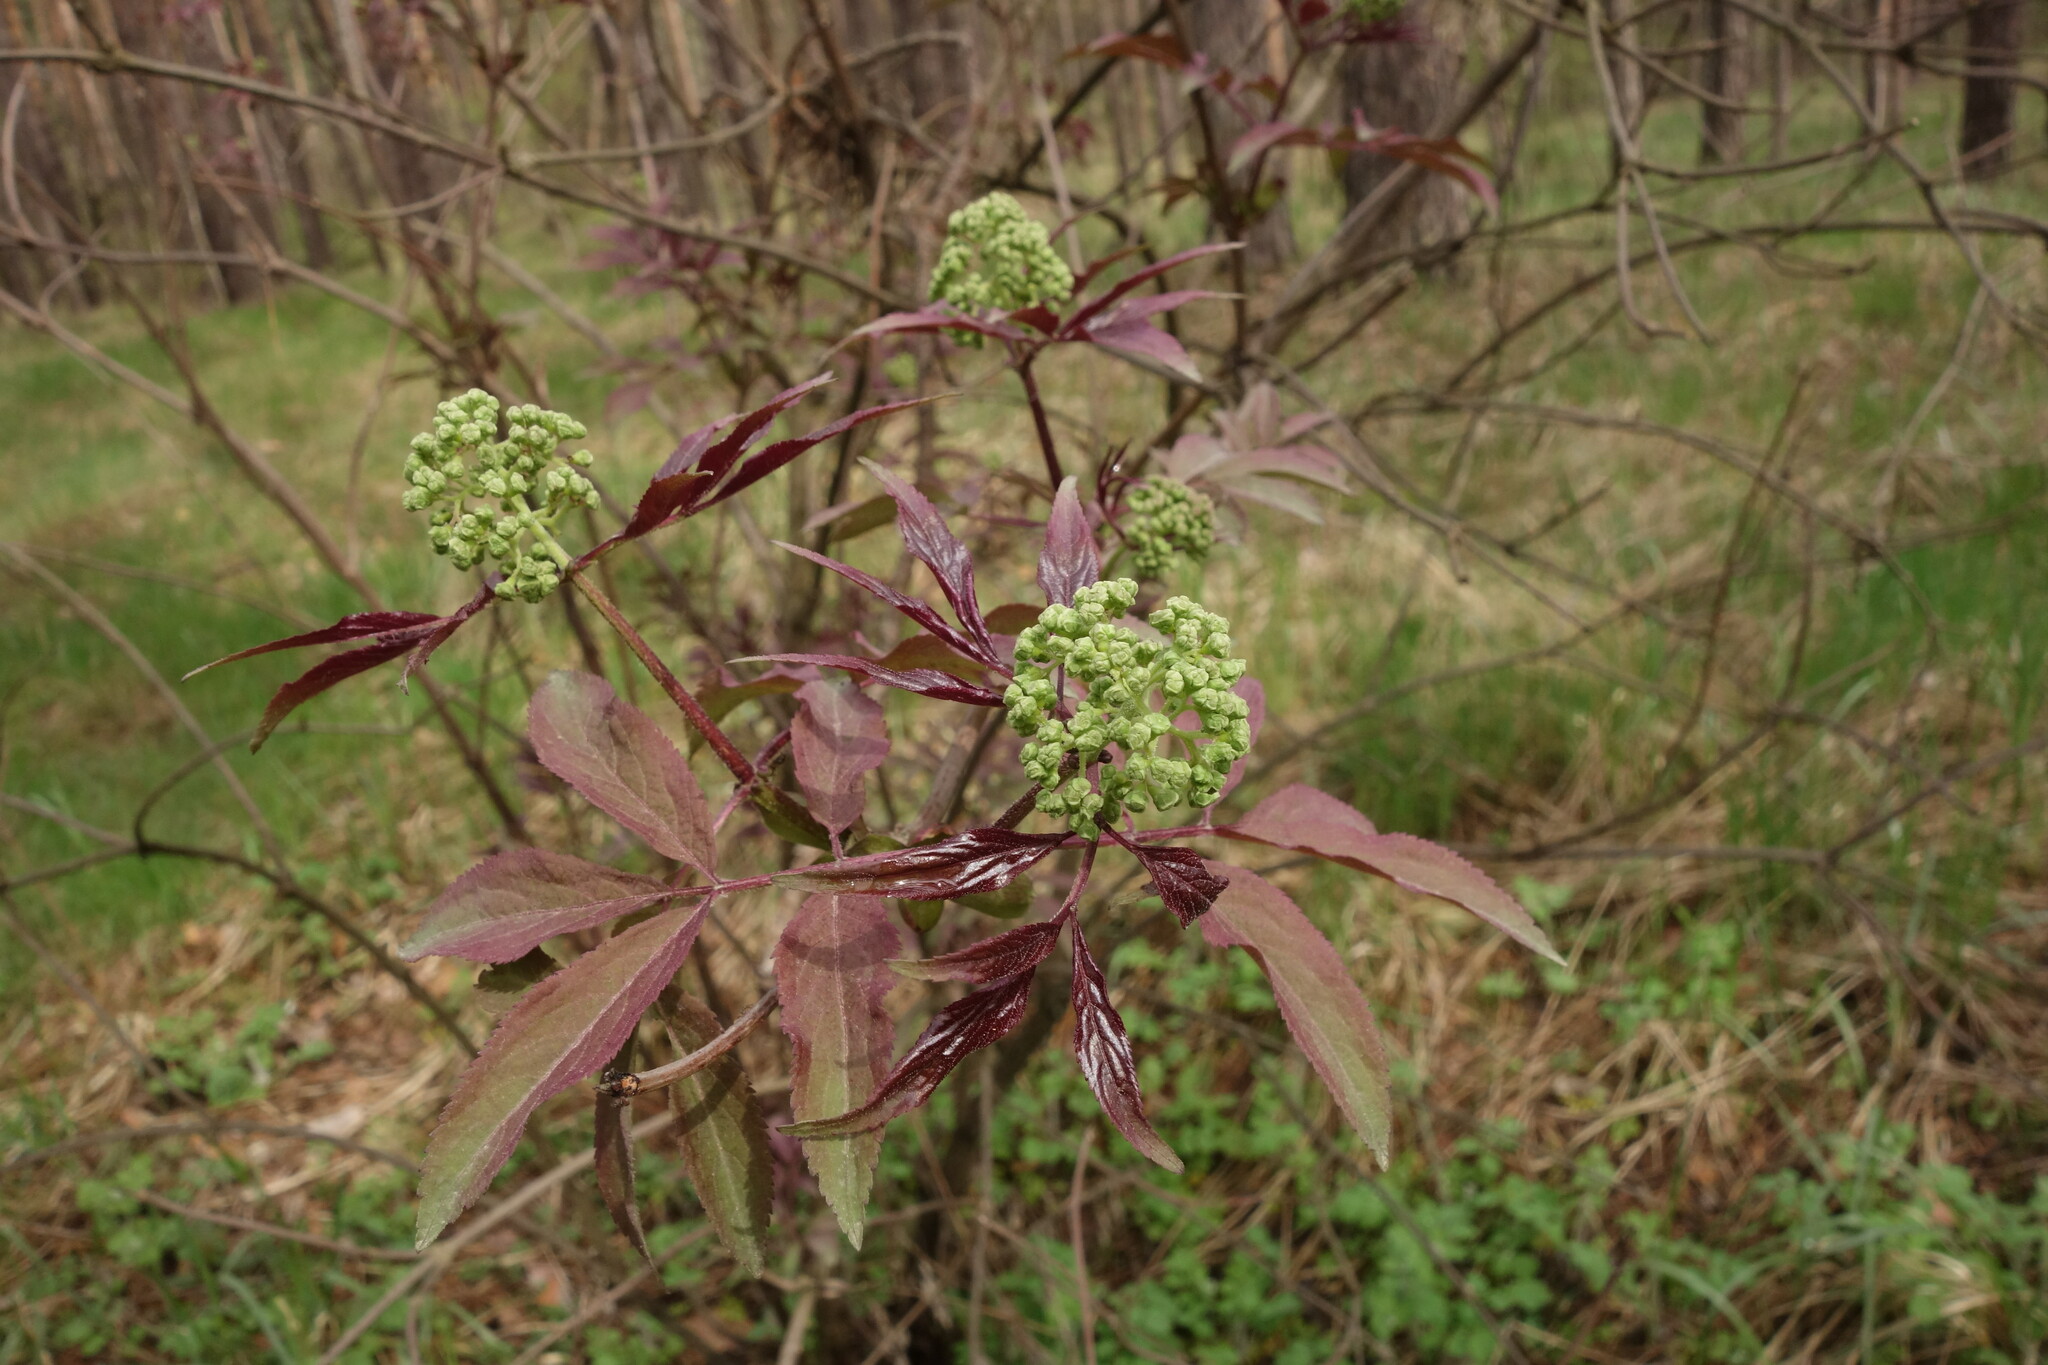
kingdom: Plantae
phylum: Tracheophyta
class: Magnoliopsida
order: Dipsacales
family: Viburnaceae
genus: Sambucus
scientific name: Sambucus racemosa
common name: Red-berried elder
